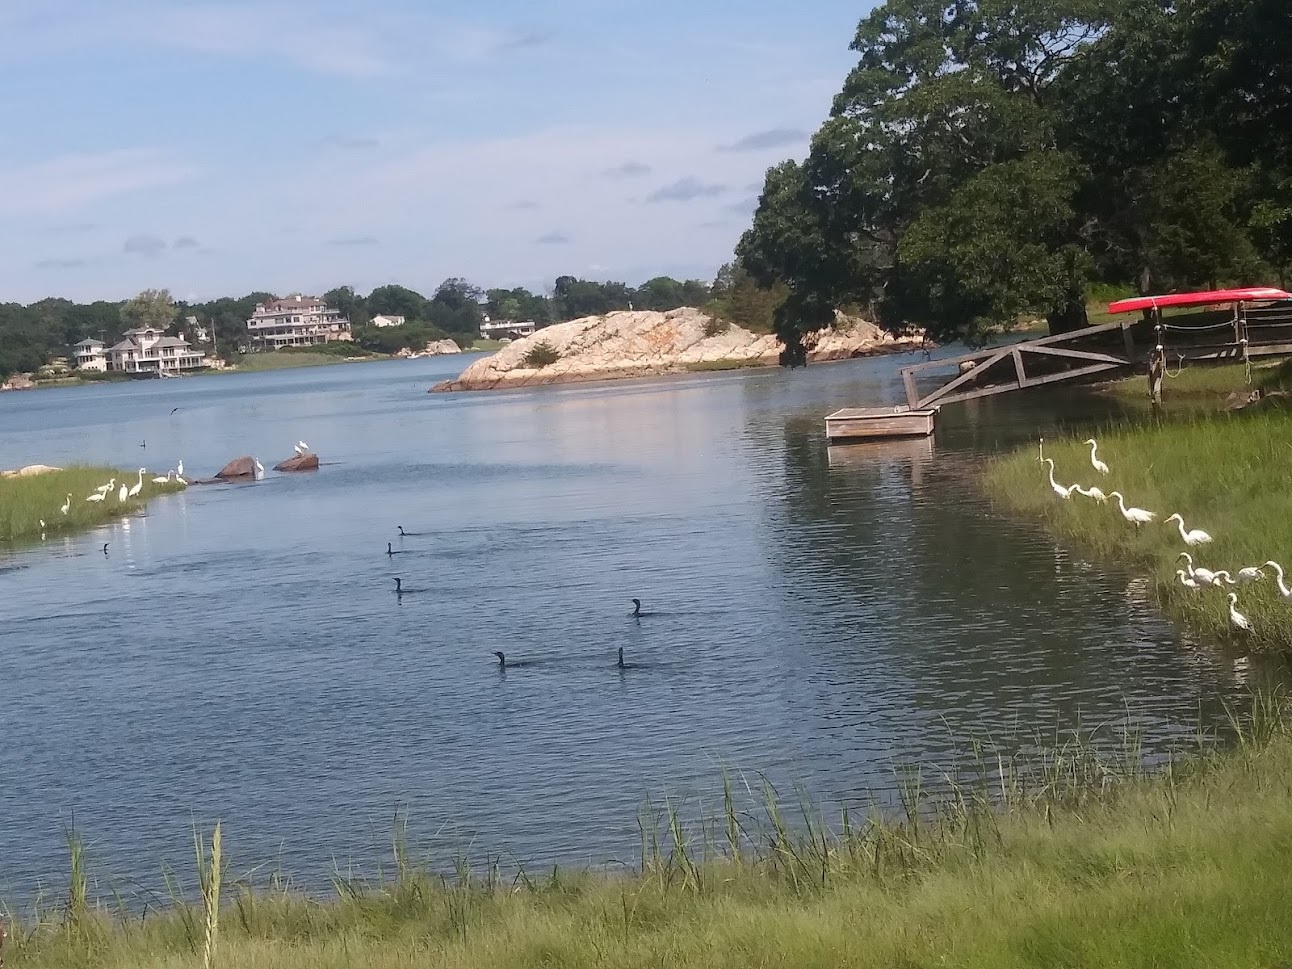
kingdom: Animalia
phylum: Chordata
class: Aves
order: Pelecaniformes
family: Ardeidae
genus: Egretta
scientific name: Egretta thula
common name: Snowy egret
